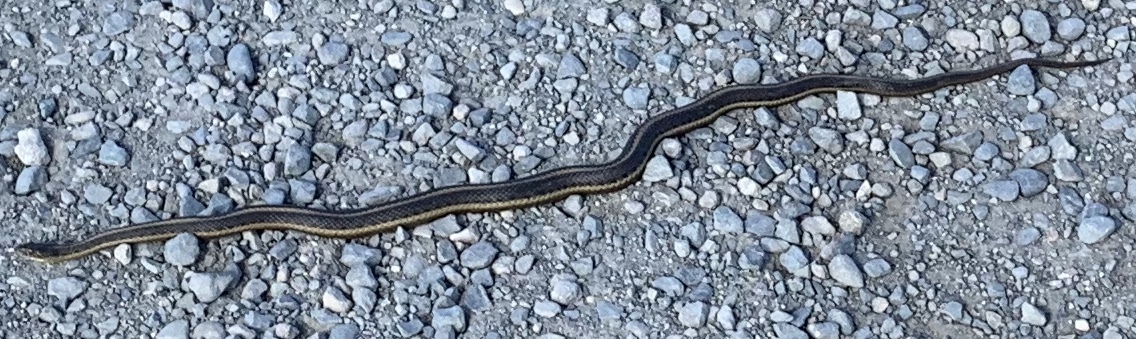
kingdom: Animalia
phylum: Chordata
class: Squamata
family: Colubridae
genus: Thamnophis
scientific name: Thamnophis gigas
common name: Giant garter snake
